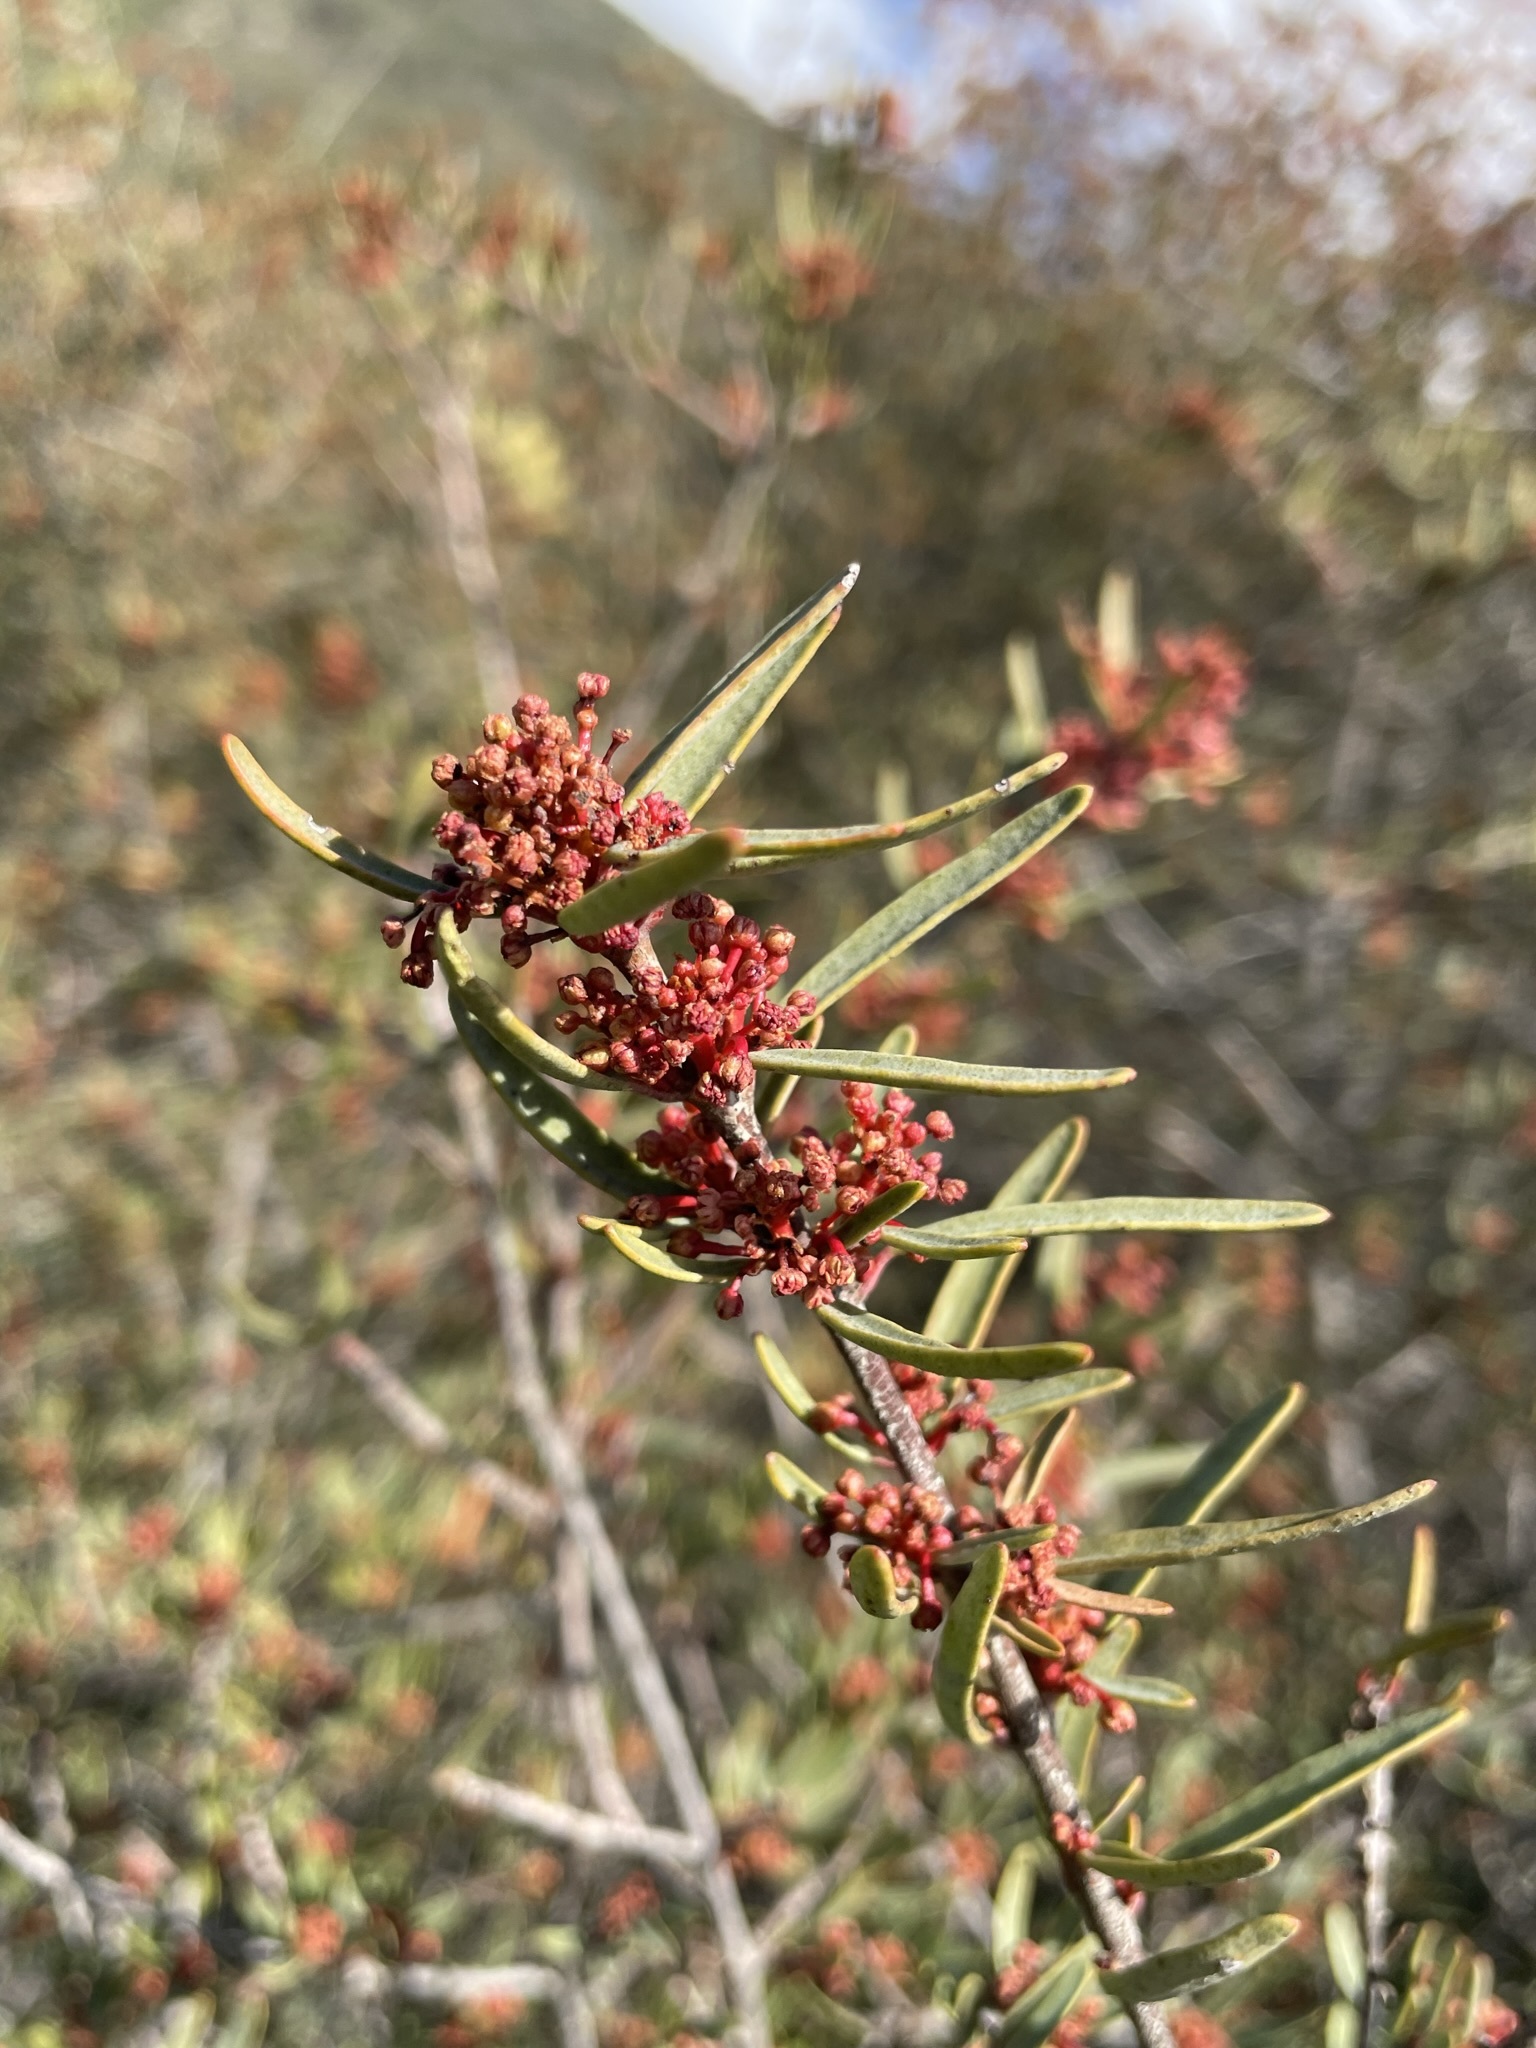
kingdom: Plantae
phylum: Tracheophyta
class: Magnoliopsida
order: Malpighiales
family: Picrodendraceae
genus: Tetracoccus
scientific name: Tetracoccus dioicus
